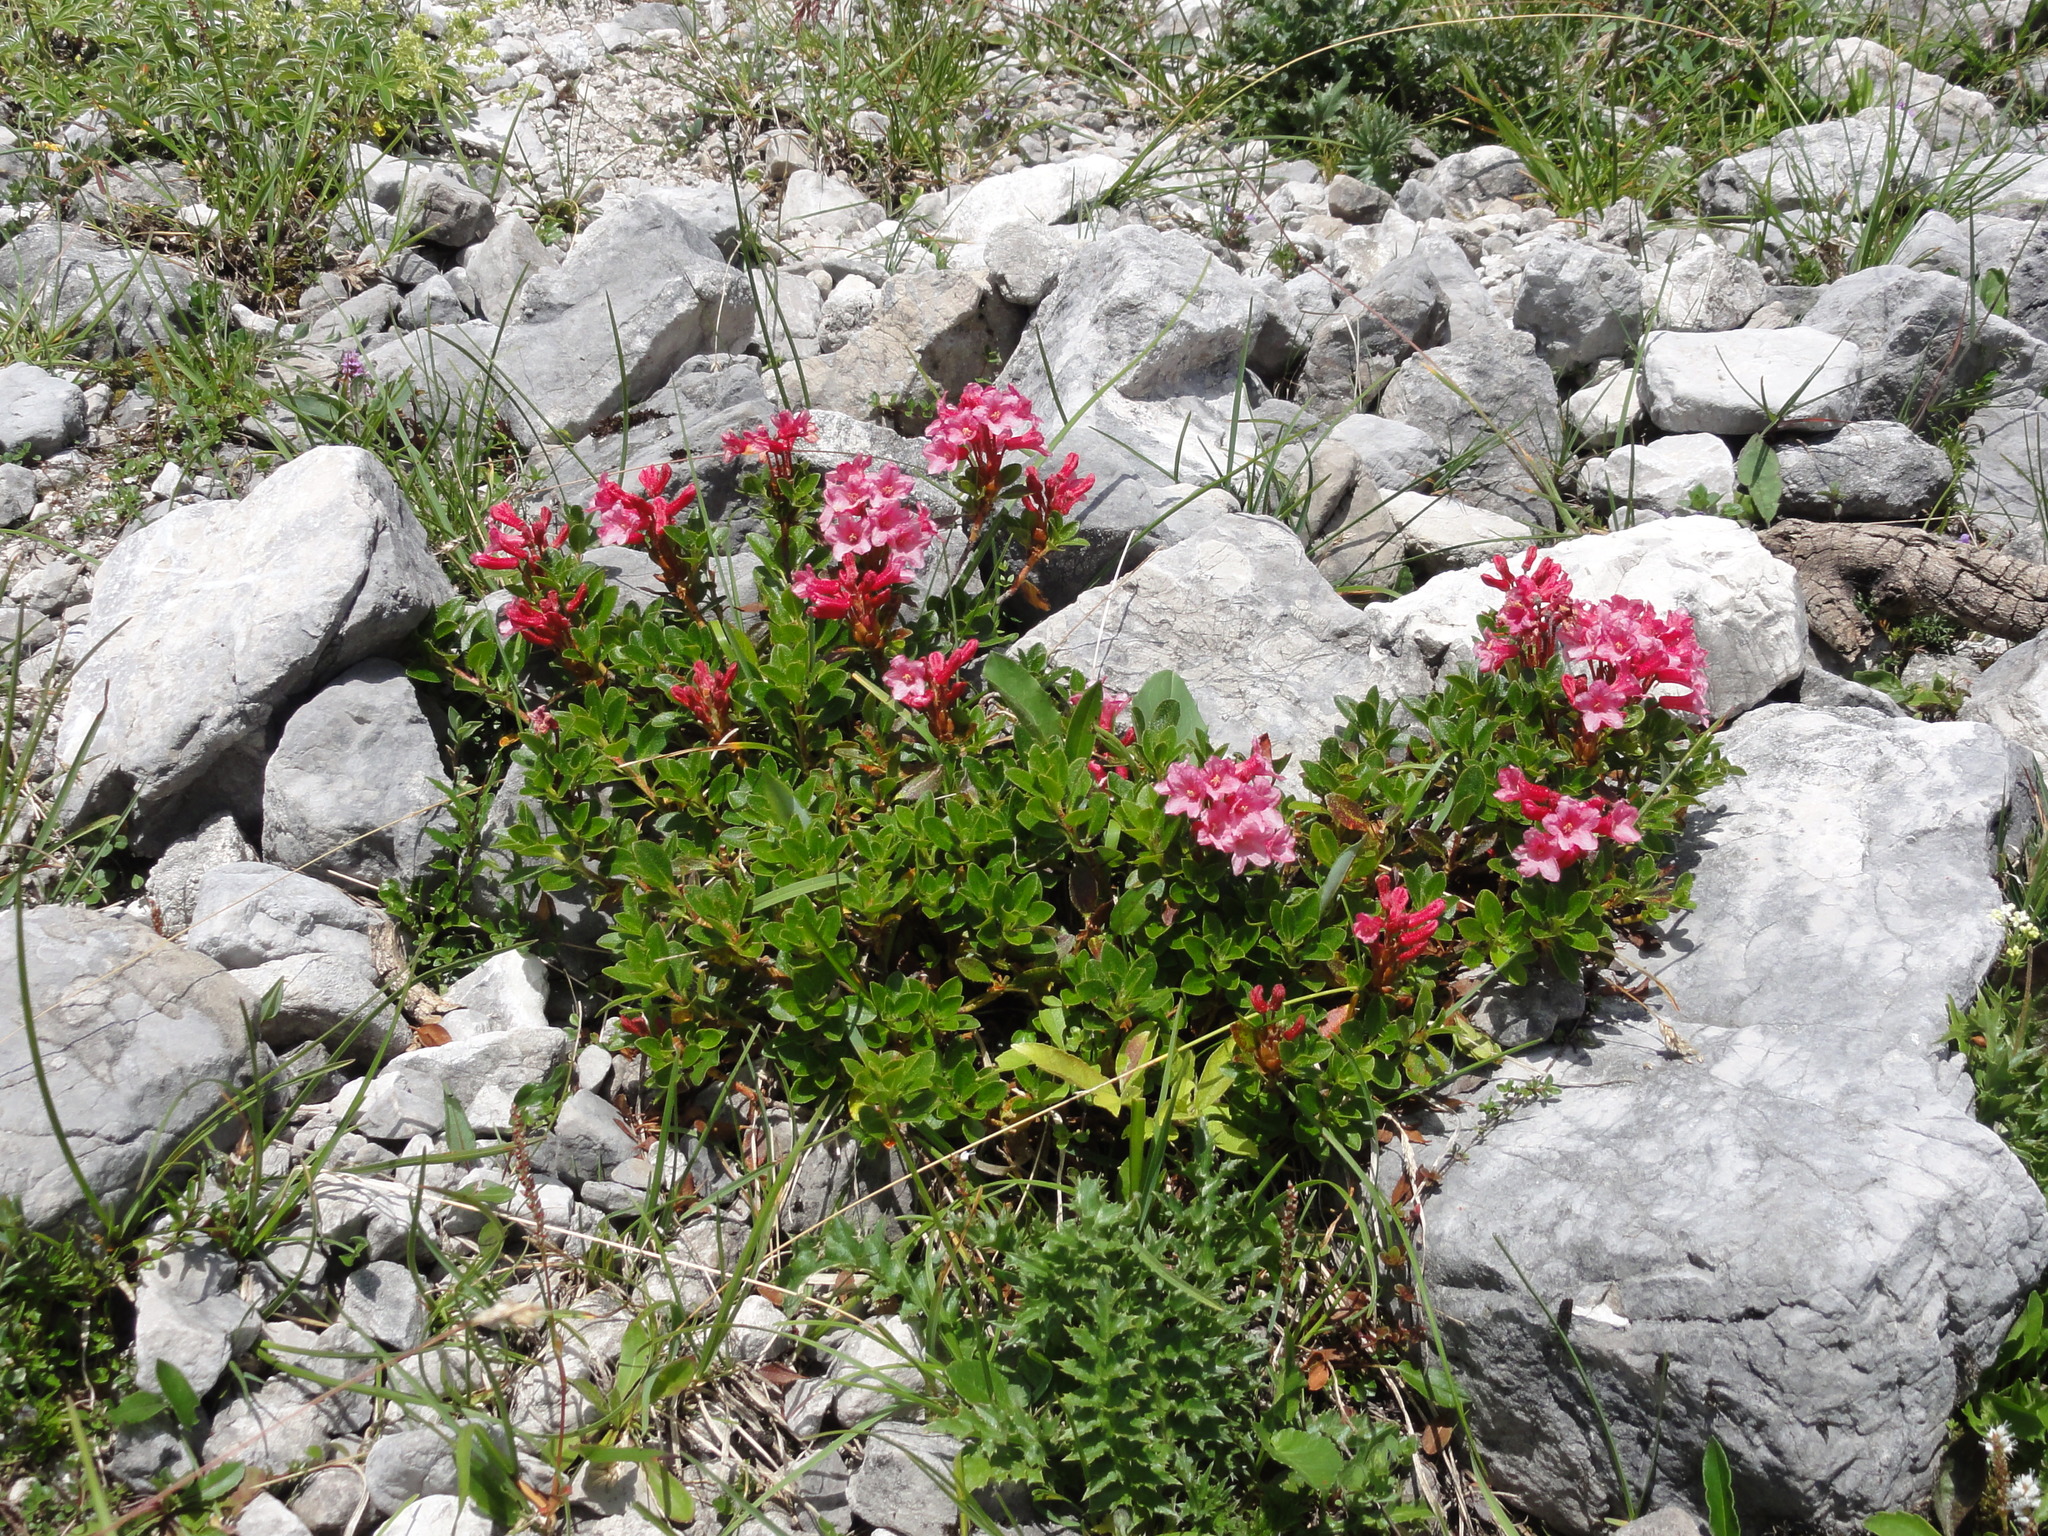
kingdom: Plantae
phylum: Tracheophyta
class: Magnoliopsida
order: Ericales
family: Ericaceae
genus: Rhododendron
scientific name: Rhododendron hirsutum
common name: Hairy alpenrose
